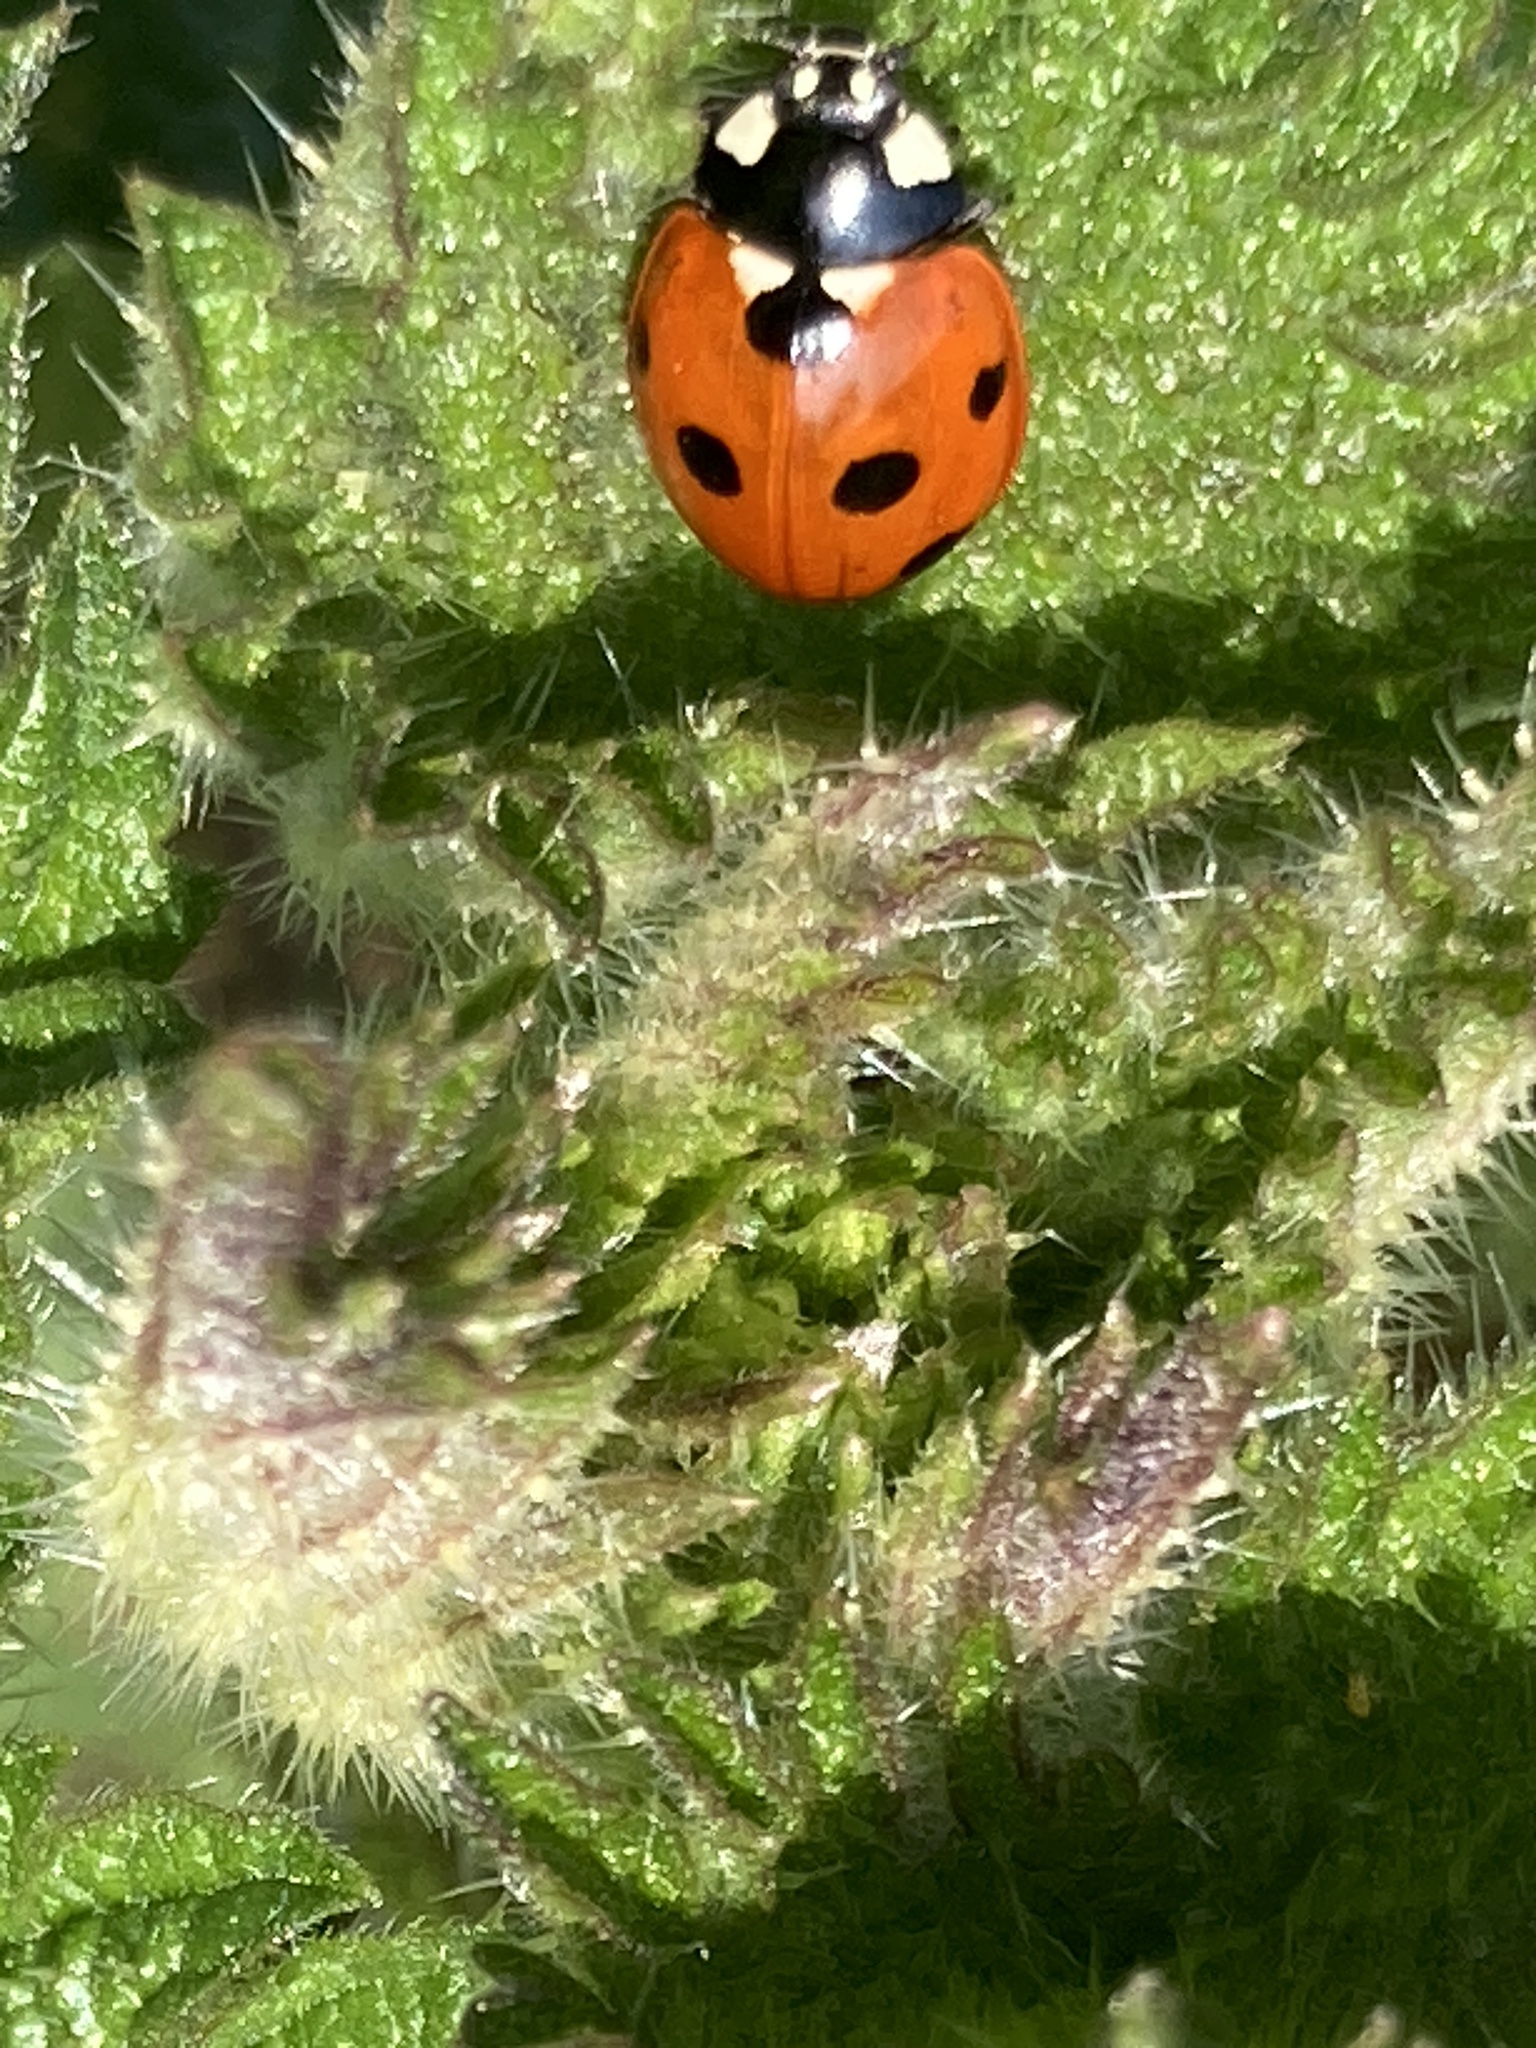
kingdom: Animalia
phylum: Arthropoda
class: Insecta
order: Coleoptera
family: Coccinellidae
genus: Coccinella
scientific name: Coccinella septempunctata
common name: Sevenspotted lady beetle
